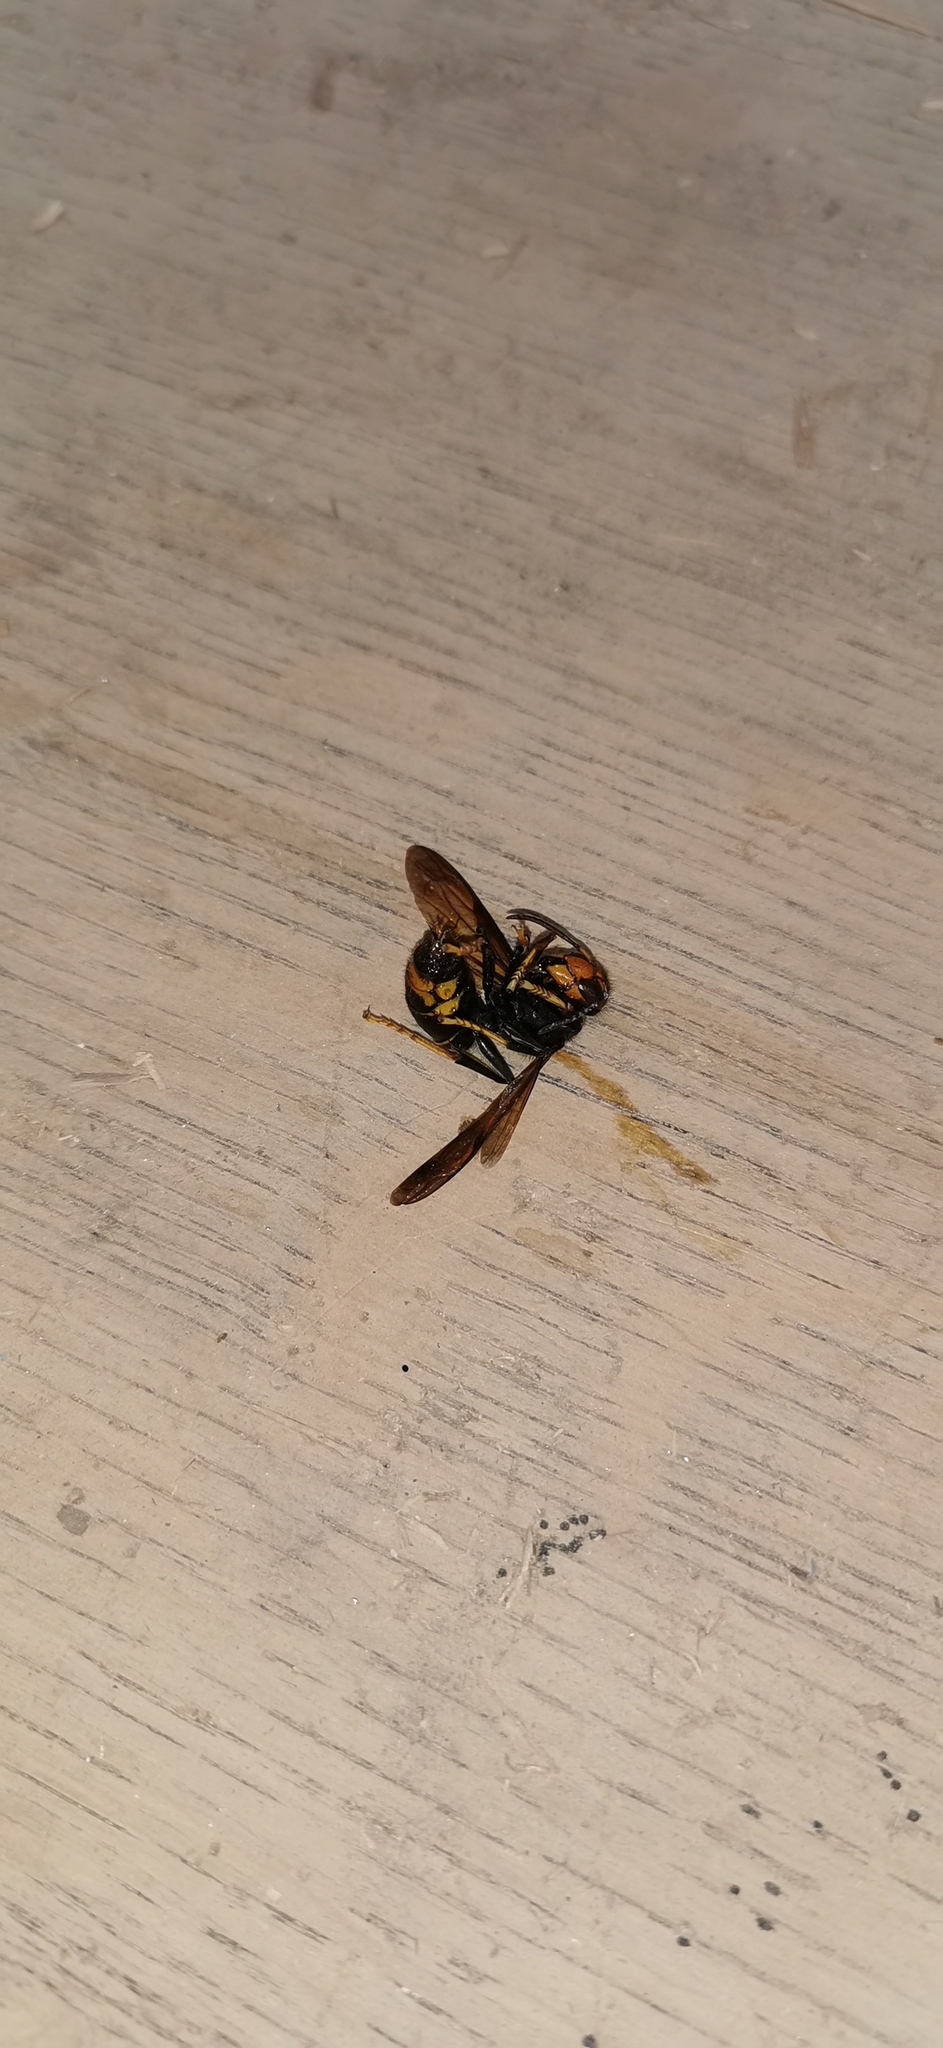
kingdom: Animalia
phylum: Arthropoda
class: Insecta
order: Hymenoptera
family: Vespidae
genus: Vespa
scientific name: Vespa velutina
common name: Asian hornet
